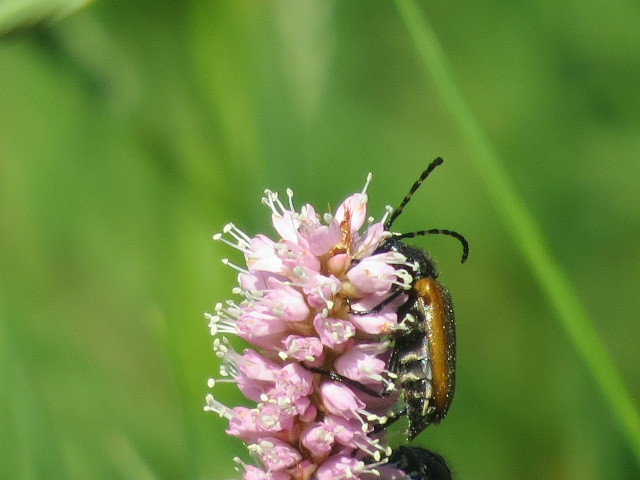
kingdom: Animalia
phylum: Arthropoda
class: Insecta
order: Coleoptera
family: Cerambycidae
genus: Paracorymbia
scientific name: Paracorymbia maculicornis
